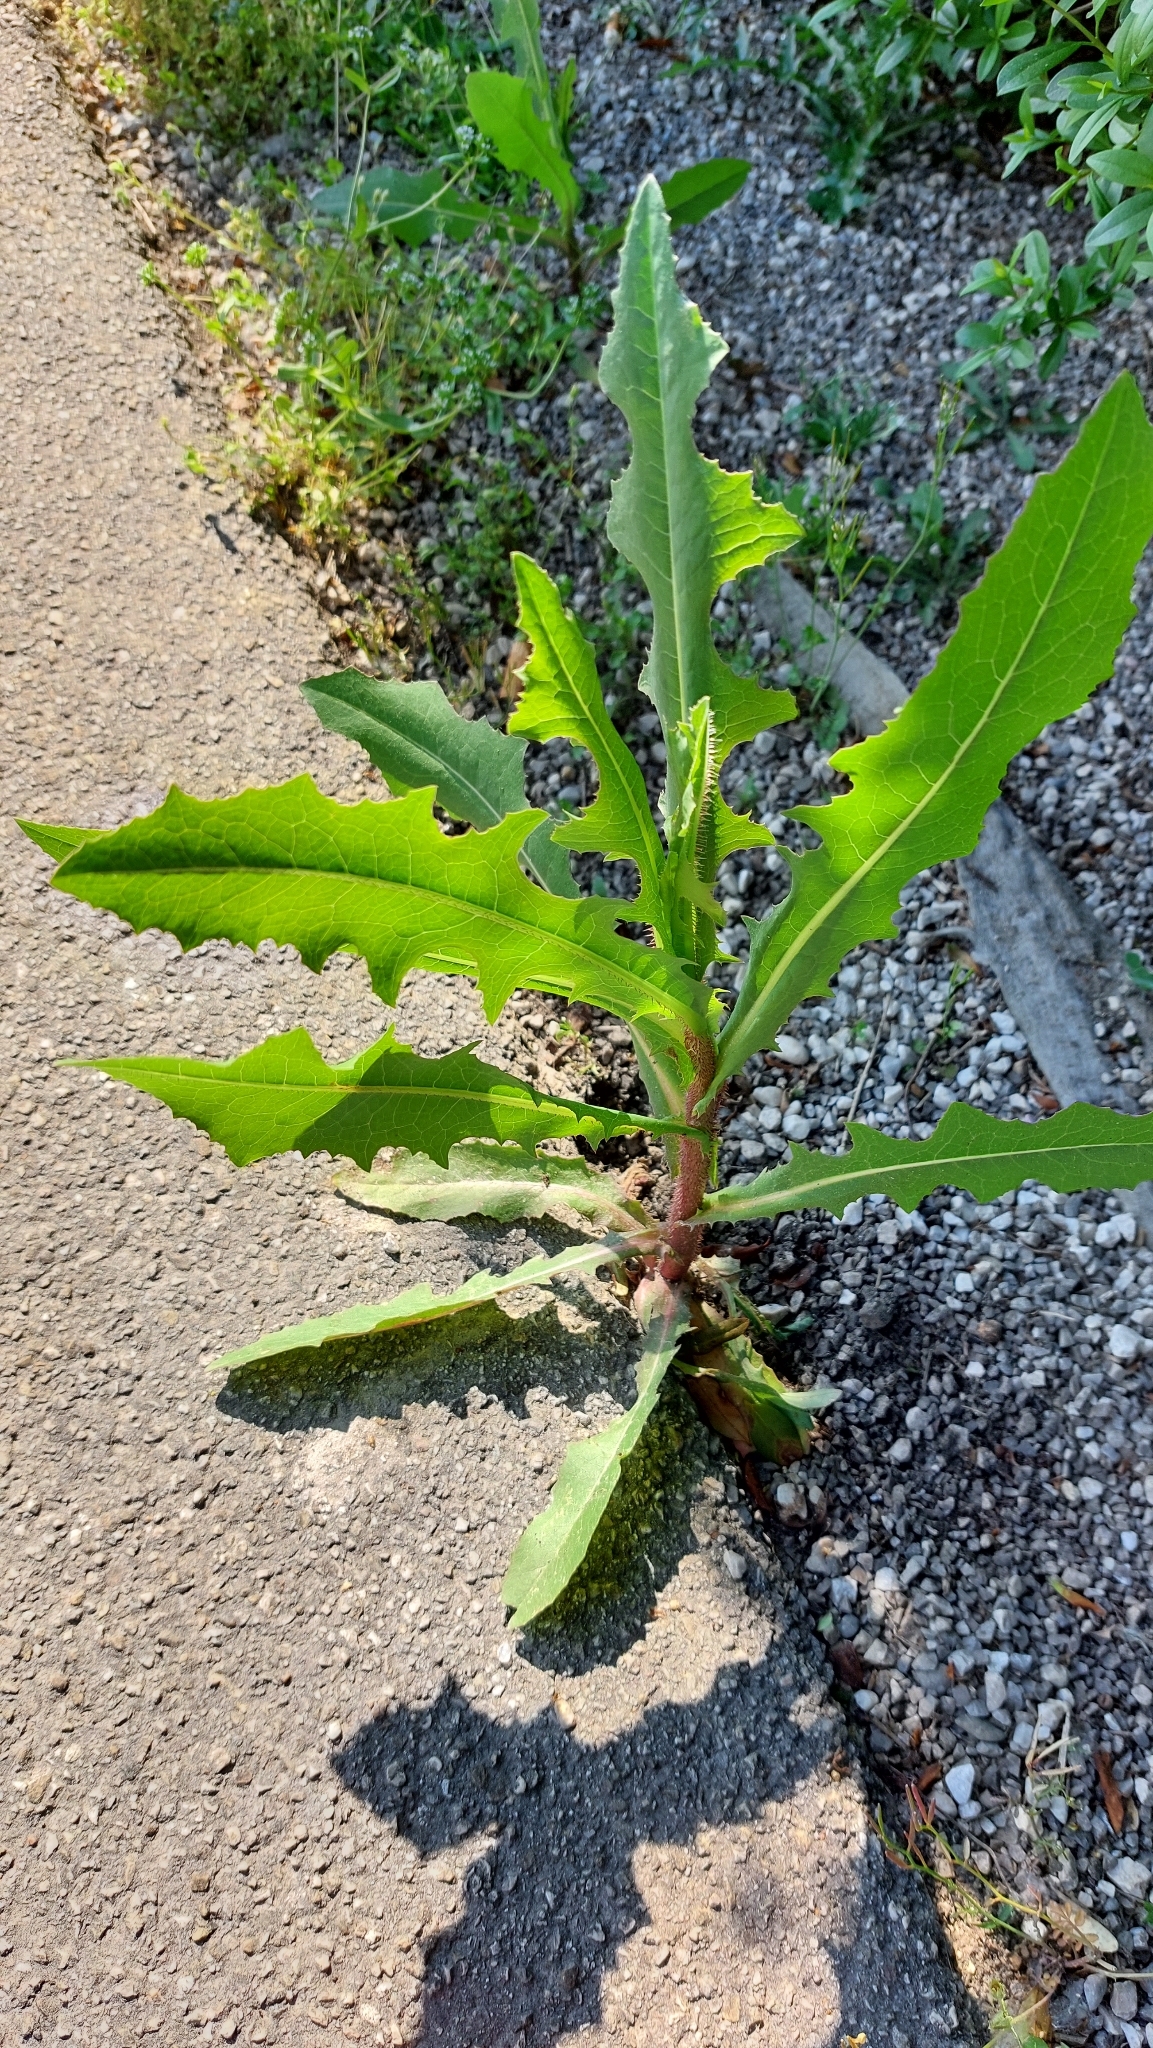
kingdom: Plantae
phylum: Tracheophyta
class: Magnoliopsida
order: Asterales
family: Asteraceae
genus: Lactuca
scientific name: Lactuca serriola
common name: Prickly lettuce
